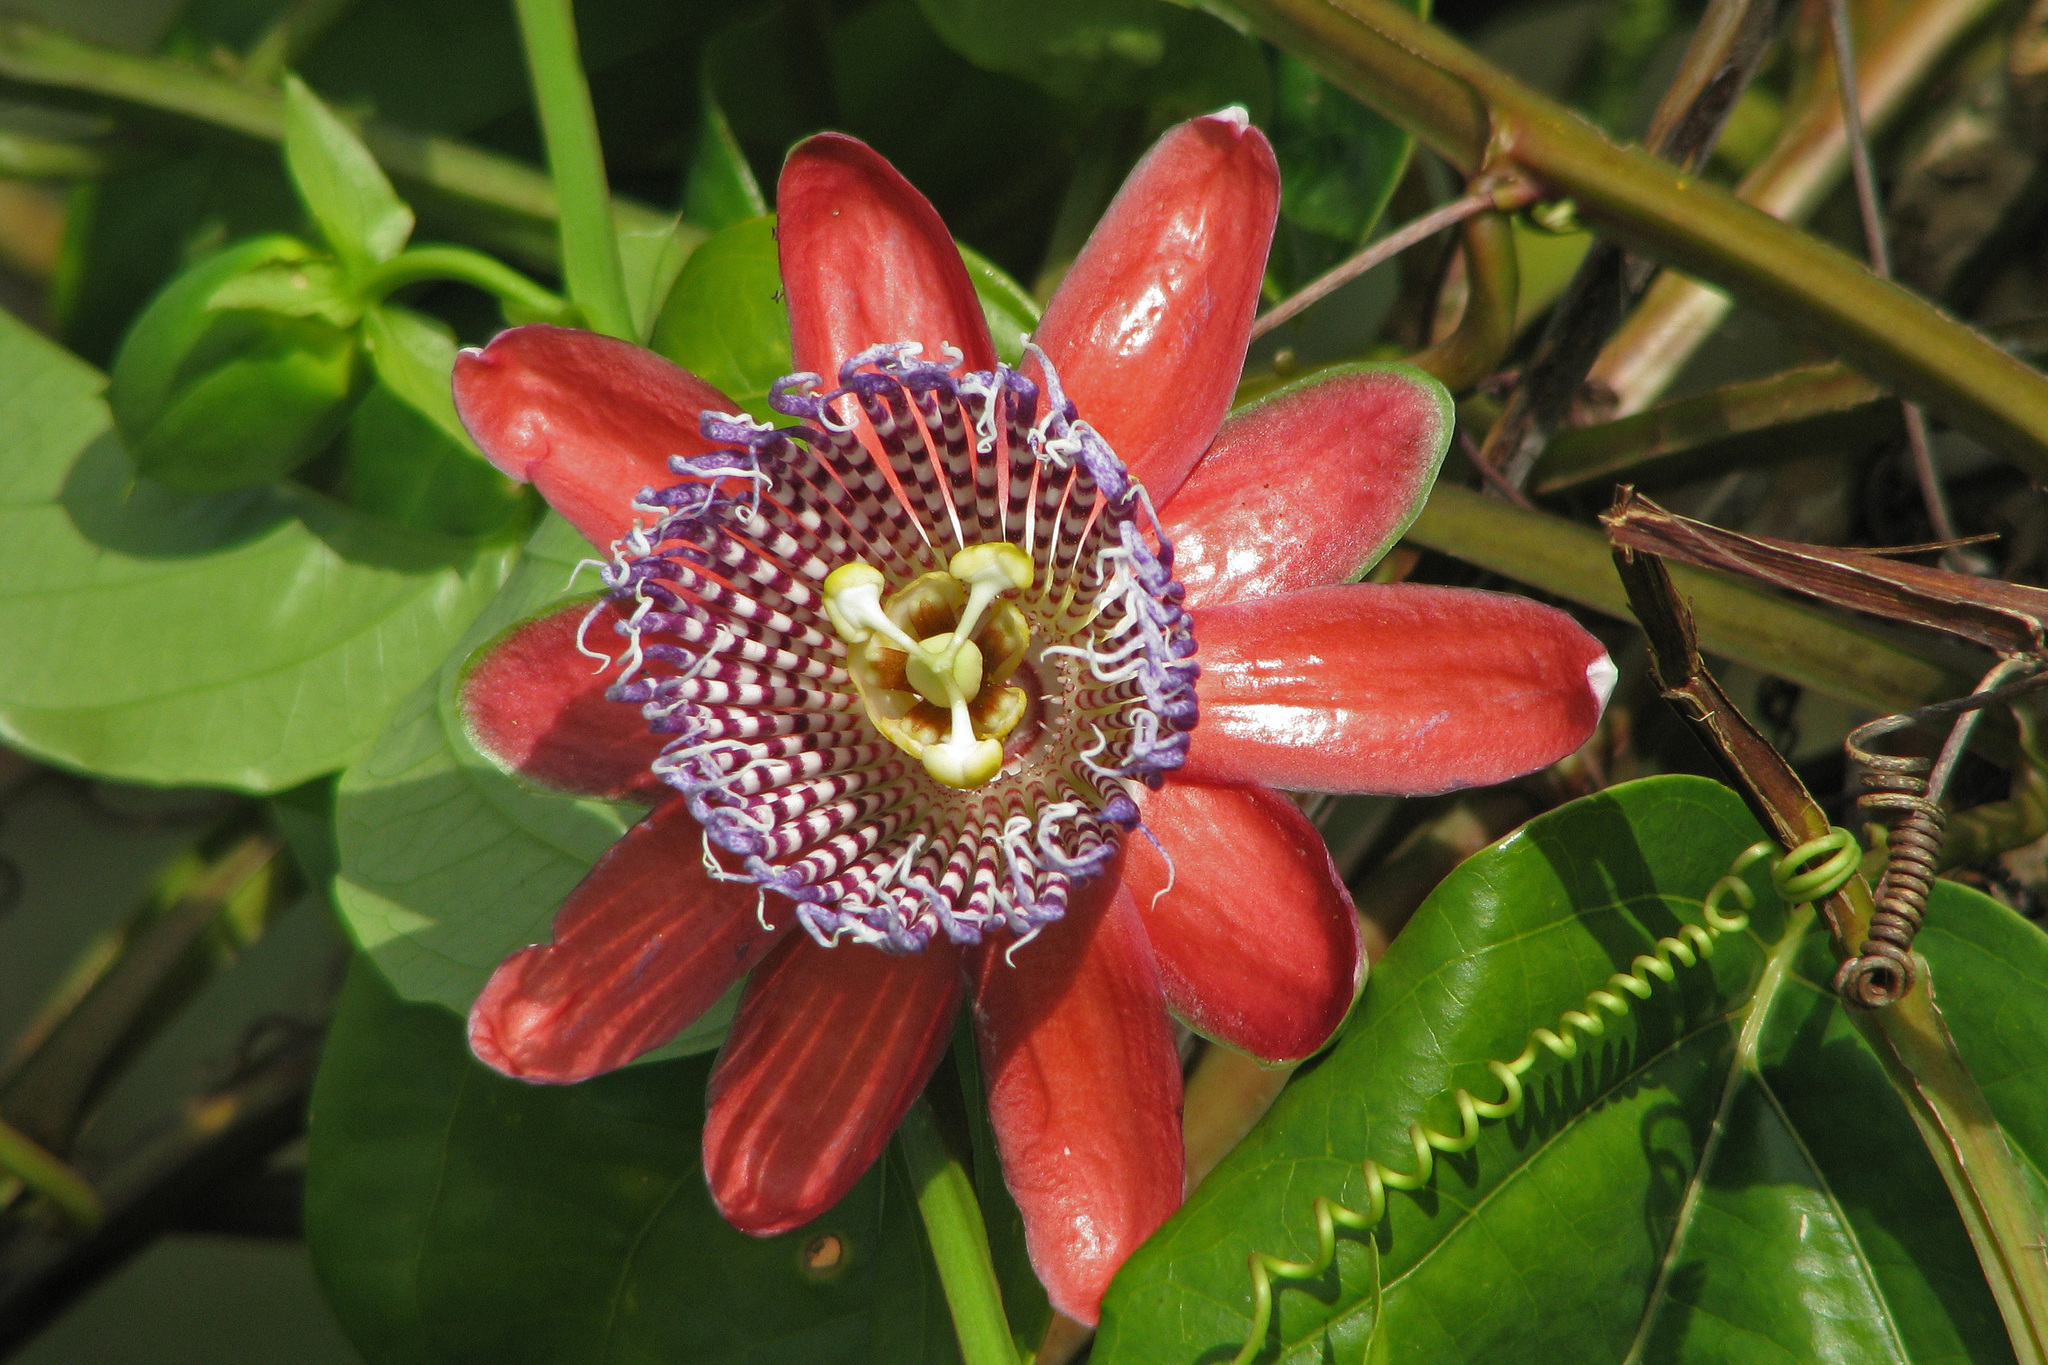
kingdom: Plantae
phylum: Tracheophyta
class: Magnoliopsida
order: Malpighiales
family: Passifloraceae
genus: Passiflora
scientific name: Passiflora alata
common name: Wing-stemmed passion flower
